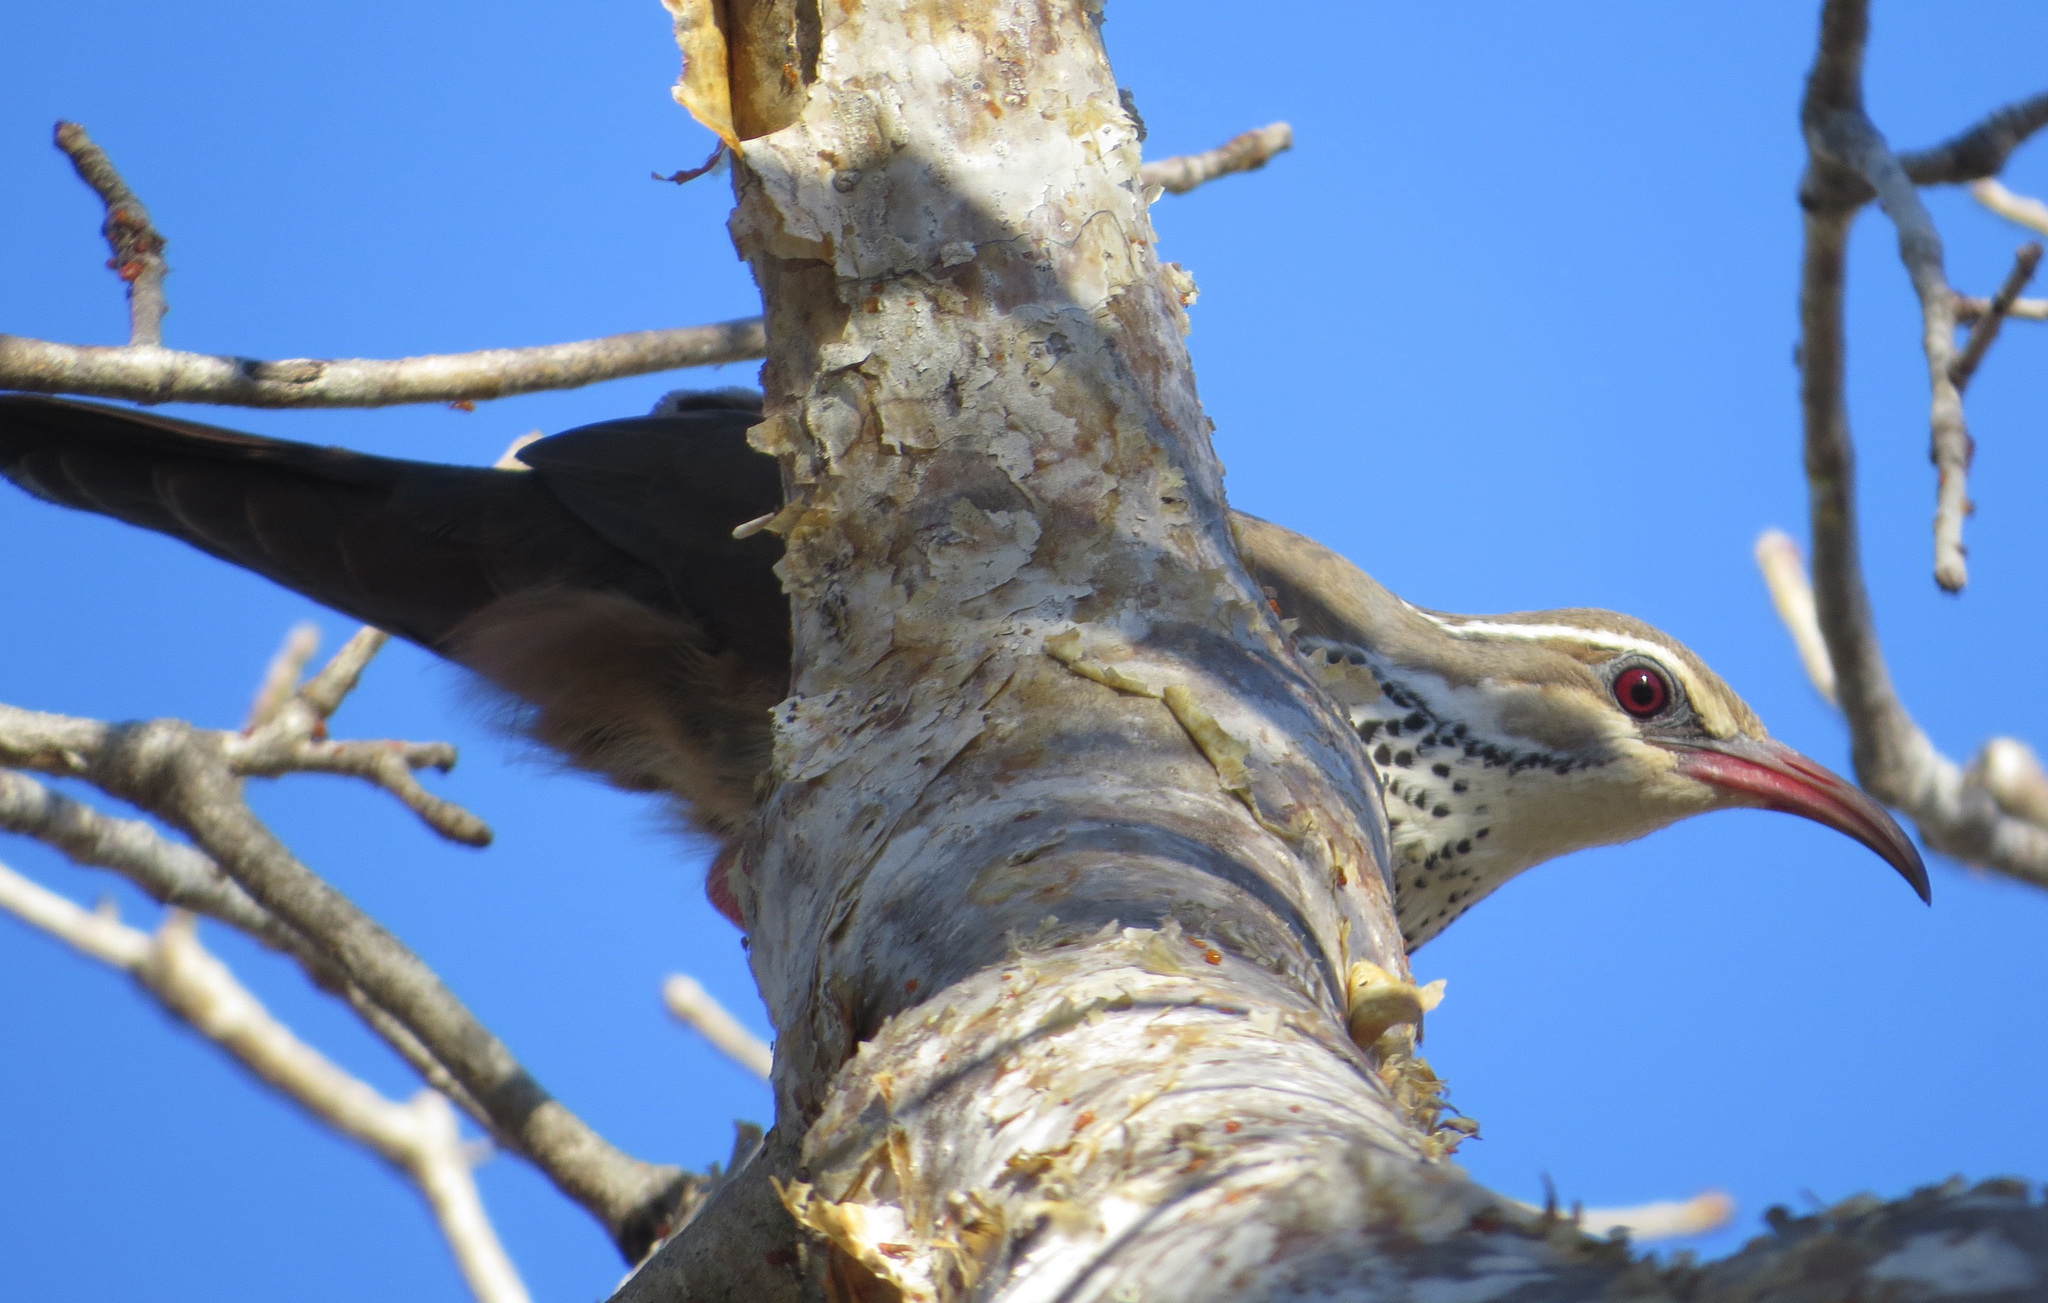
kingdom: Animalia
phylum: Chordata
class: Aves
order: Mesitornithiformes
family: Mesitornithidae
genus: Monias
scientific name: Monias benschi
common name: Subdesert mesite
